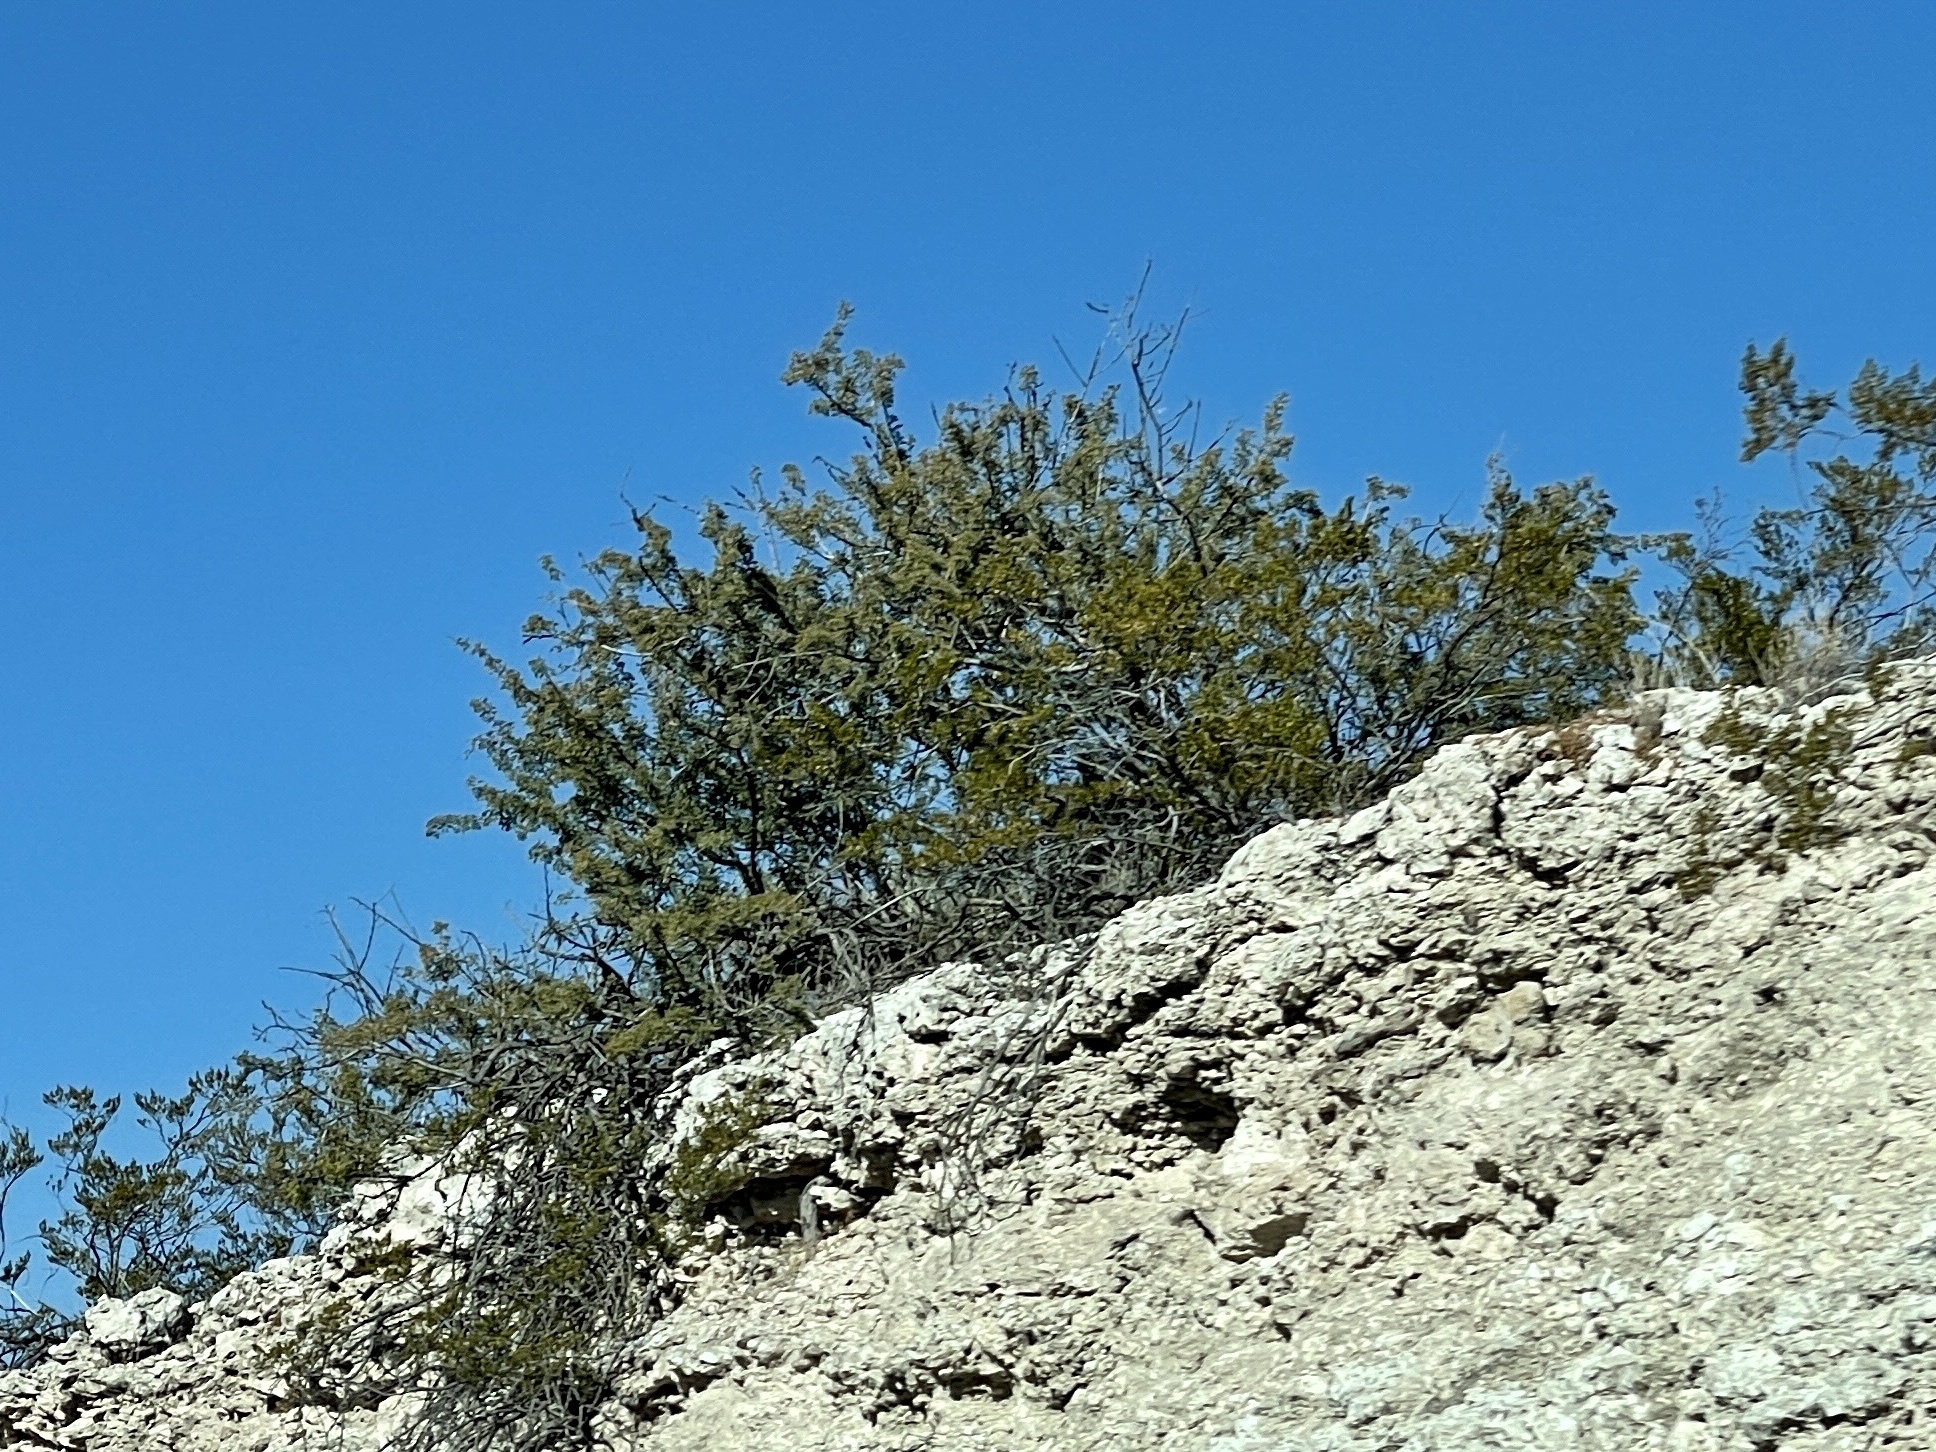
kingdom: Plantae
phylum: Tracheophyta
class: Magnoliopsida
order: Zygophyllales
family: Zygophyllaceae
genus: Larrea
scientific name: Larrea tridentata
